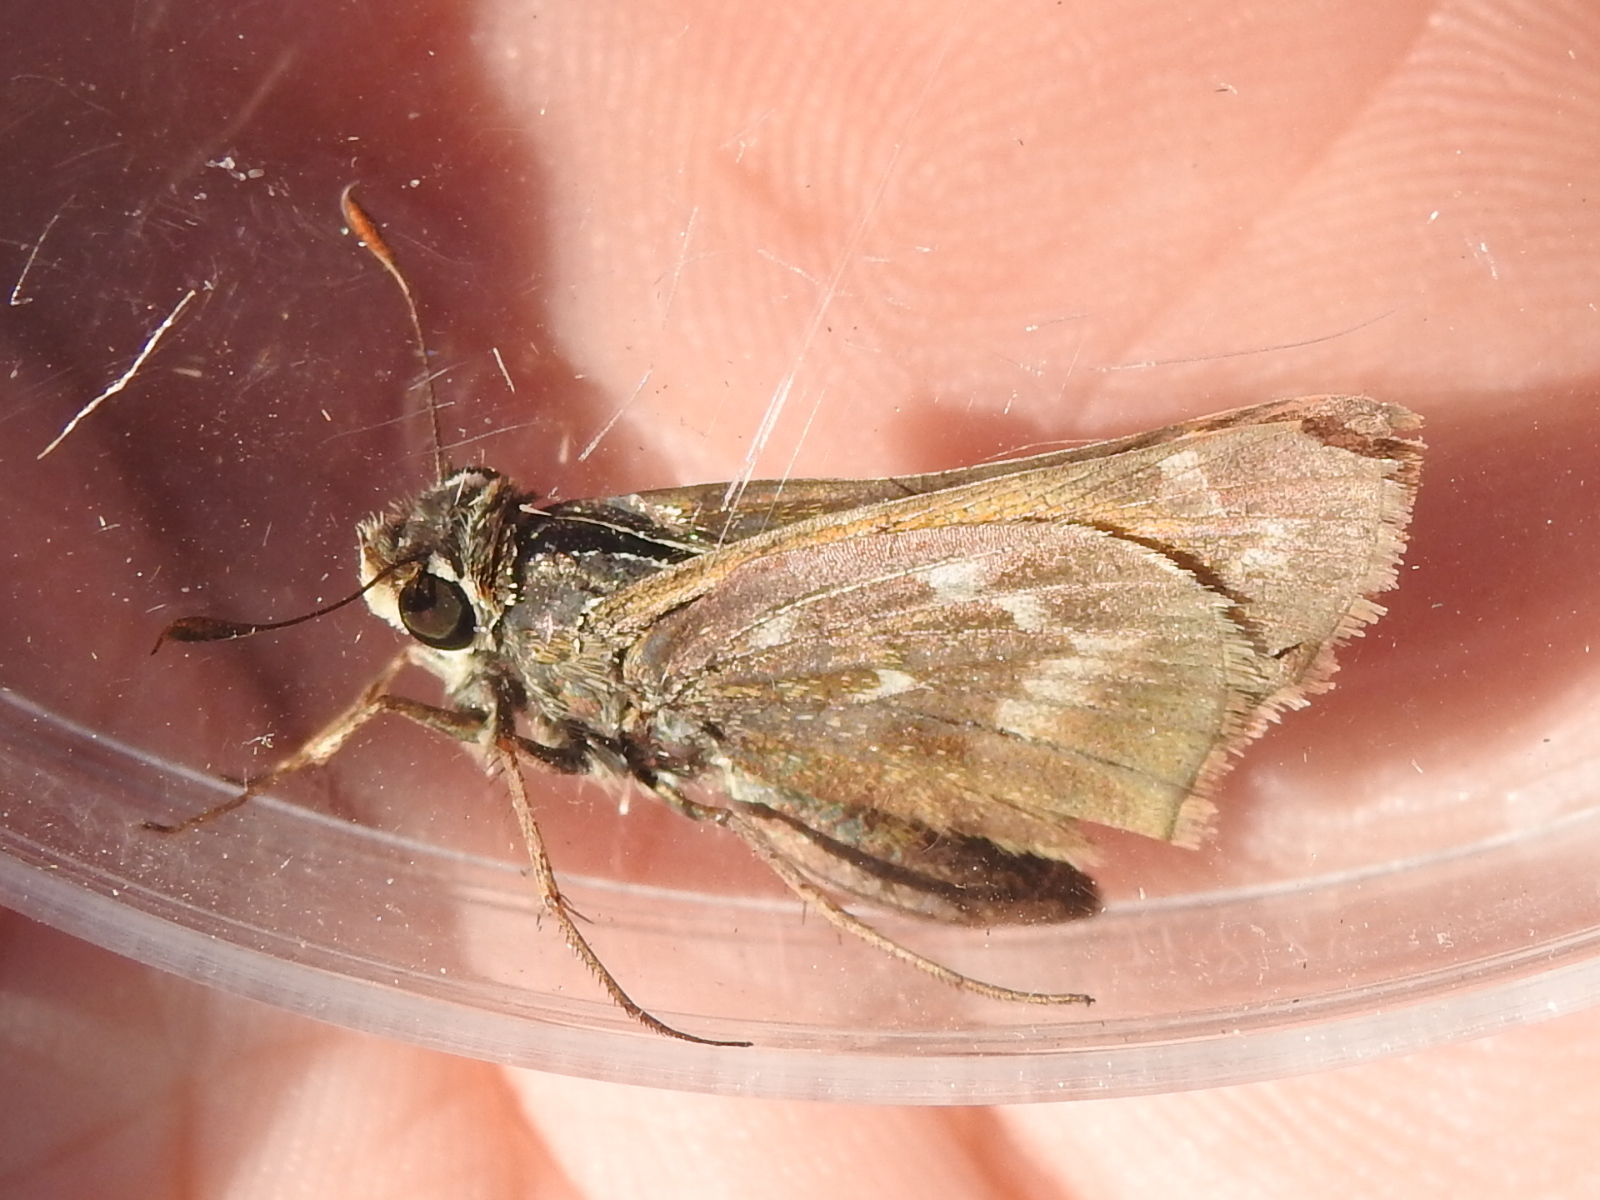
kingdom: Animalia
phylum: Arthropoda
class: Insecta
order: Lepidoptera
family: Hesperiidae
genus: Atalopedes
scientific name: Atalopedes
